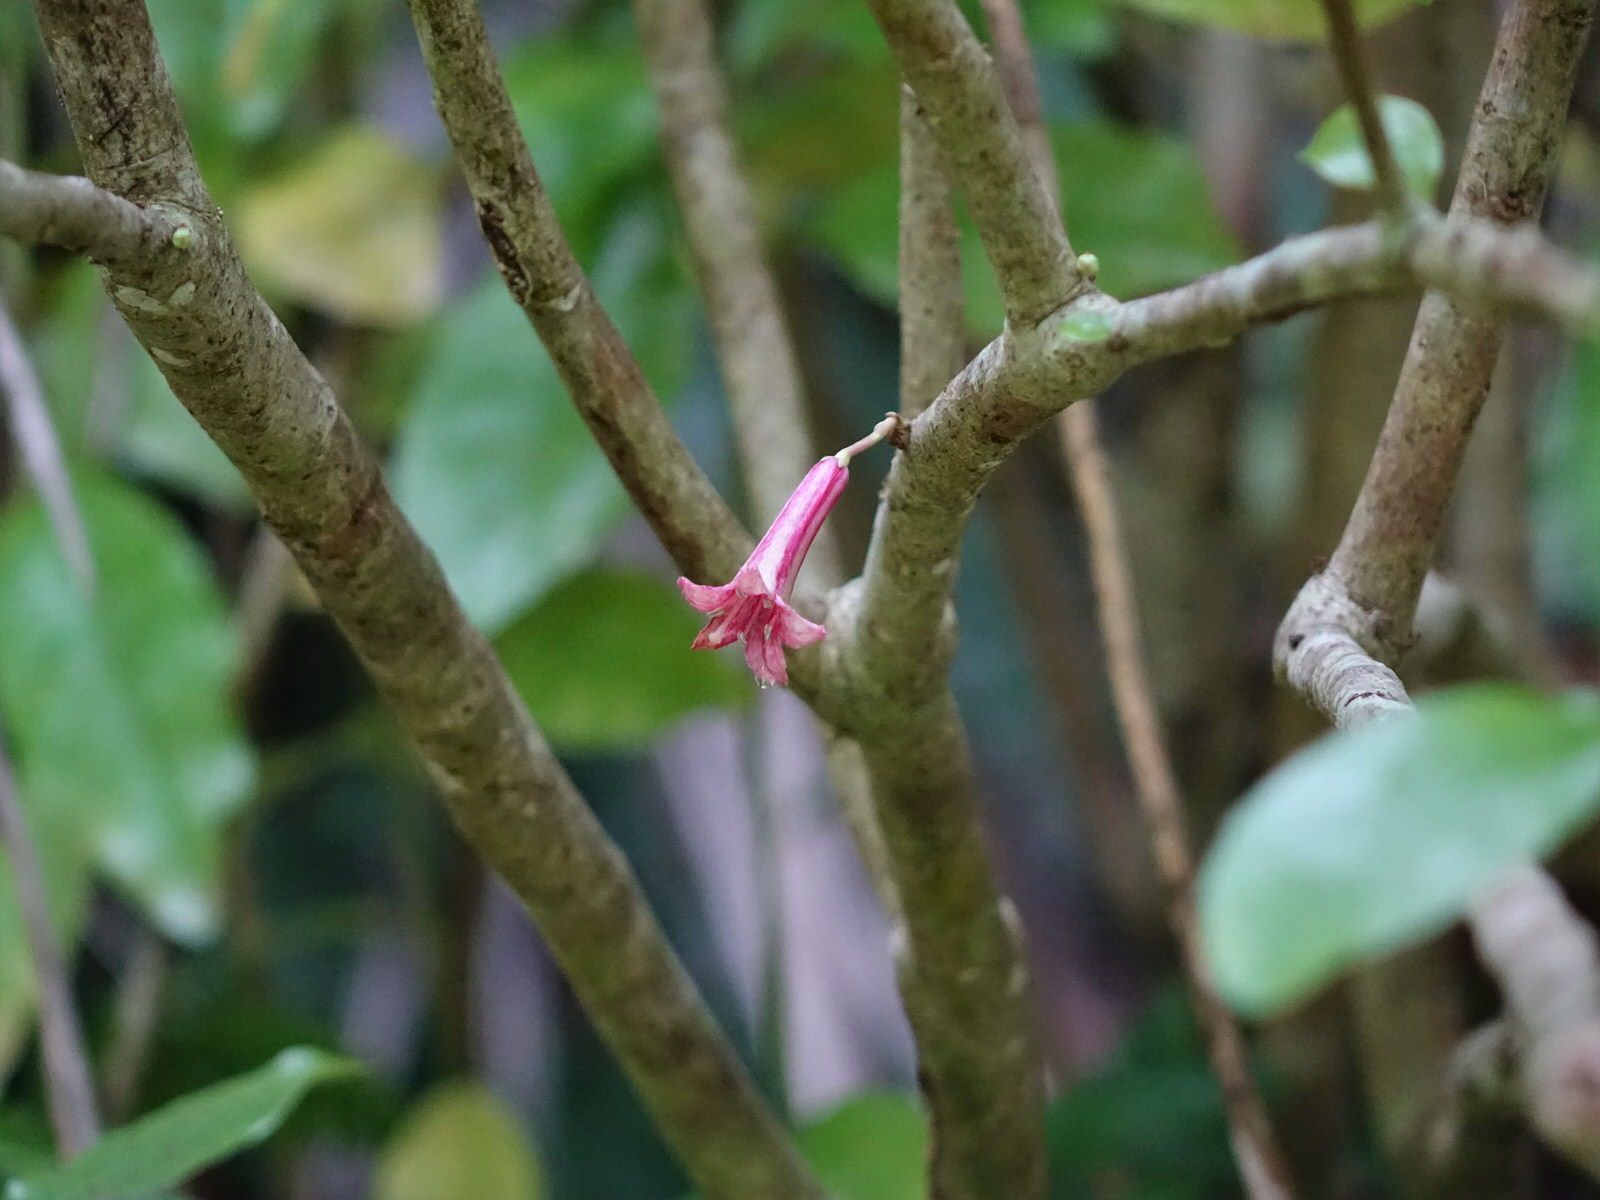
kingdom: Plantae
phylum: Tracheophyta
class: Magnoliopsida
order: Asterales
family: Alseuosmiaceae
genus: Alseuosmia
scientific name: Alseuosmia macrophylla
